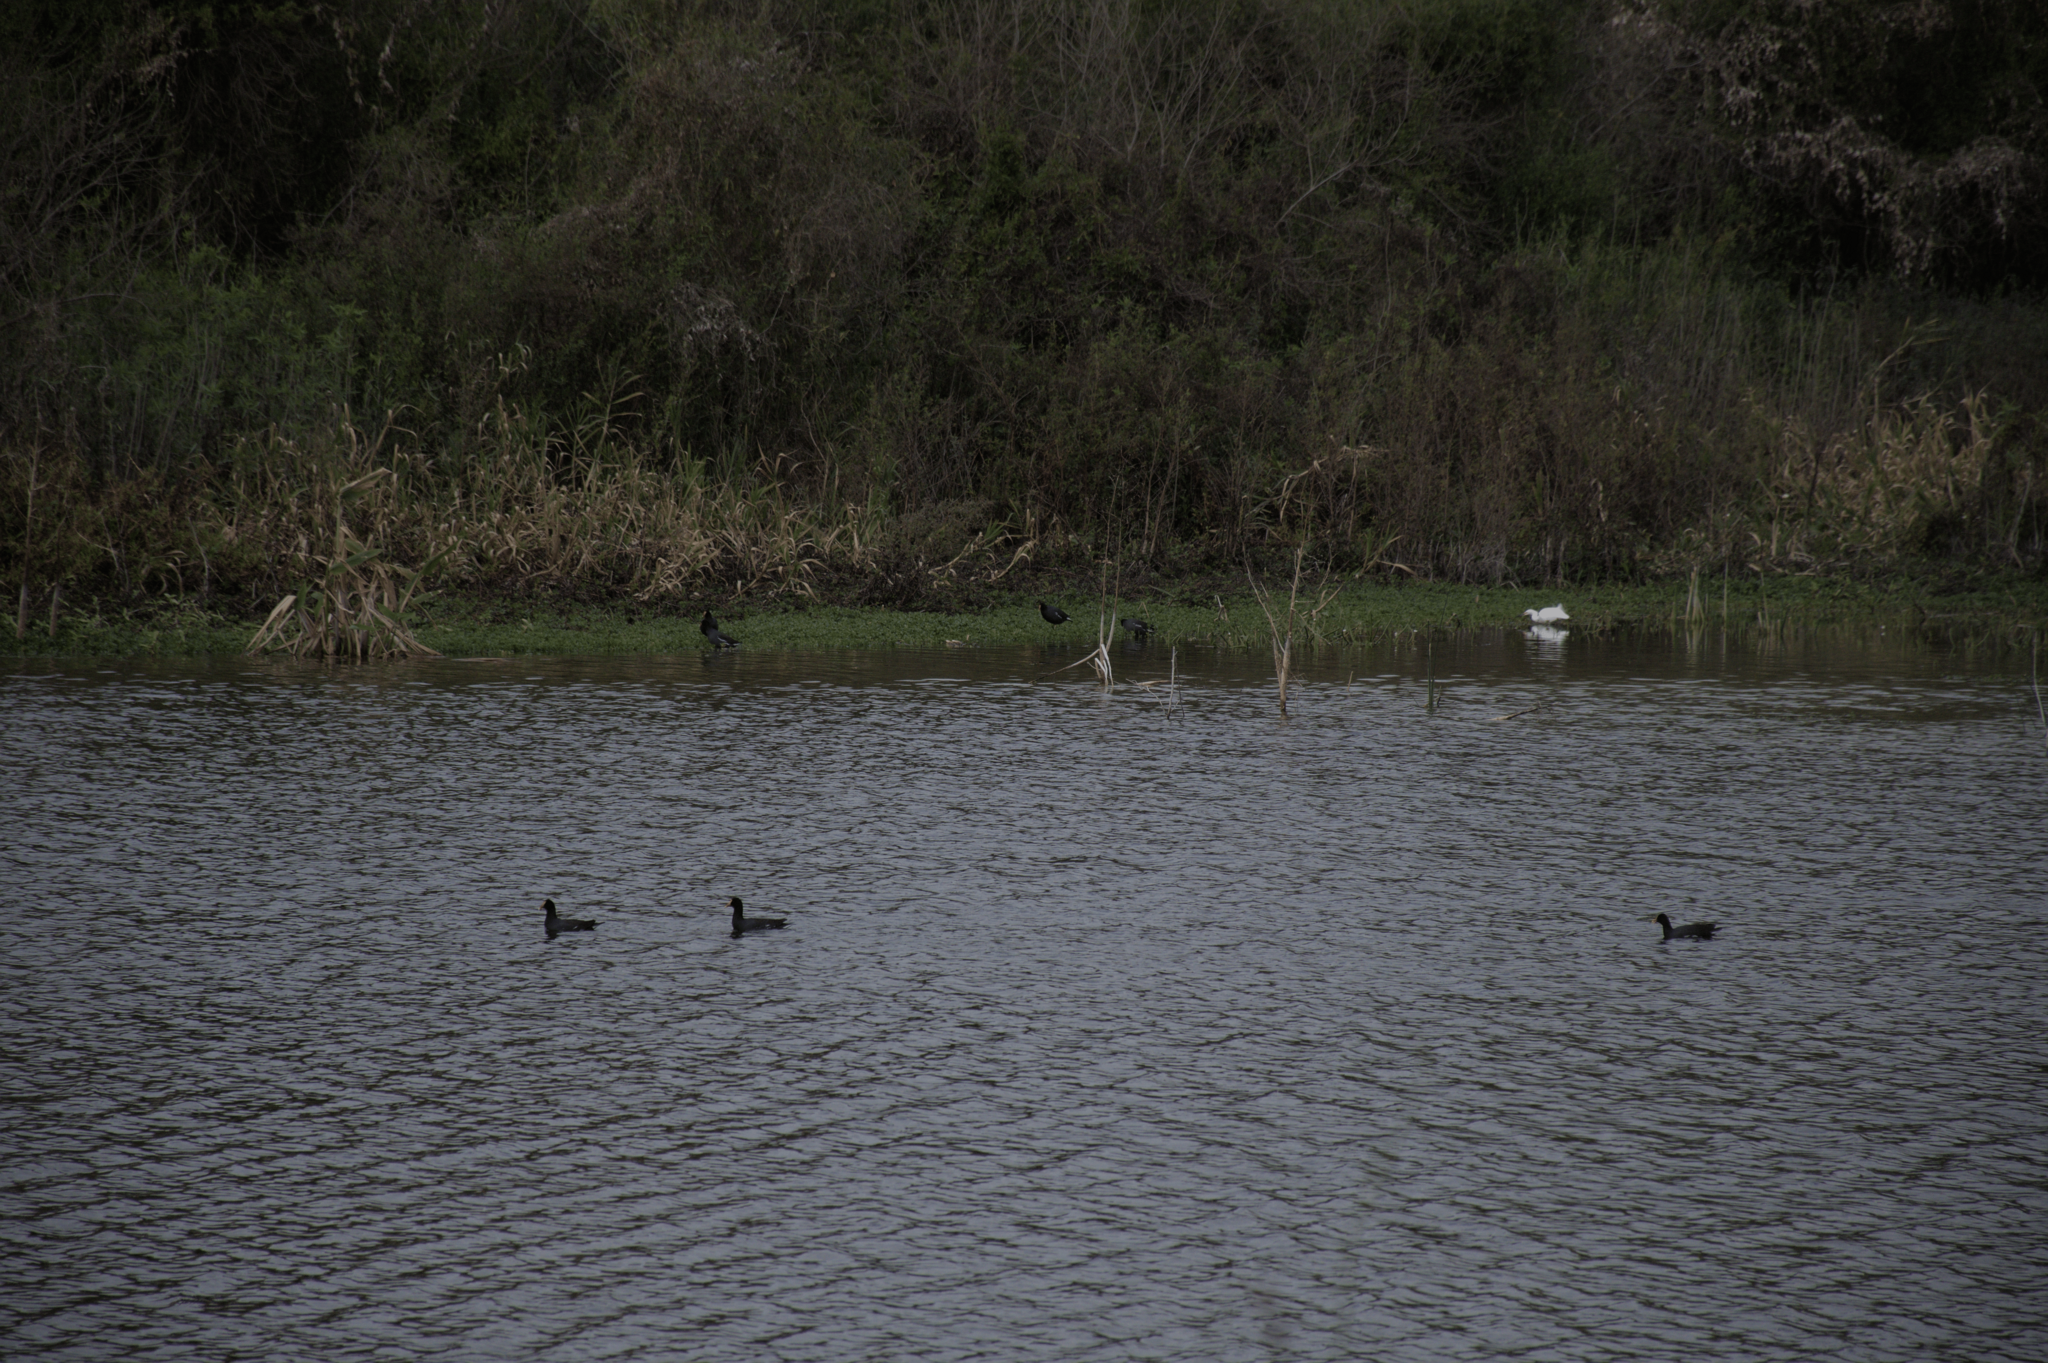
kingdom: Animalia
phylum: Chordata
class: Aves
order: Gruiformes
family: Rallidae
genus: Gallinula
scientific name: Gallinula chloropus
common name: Common moorhen
